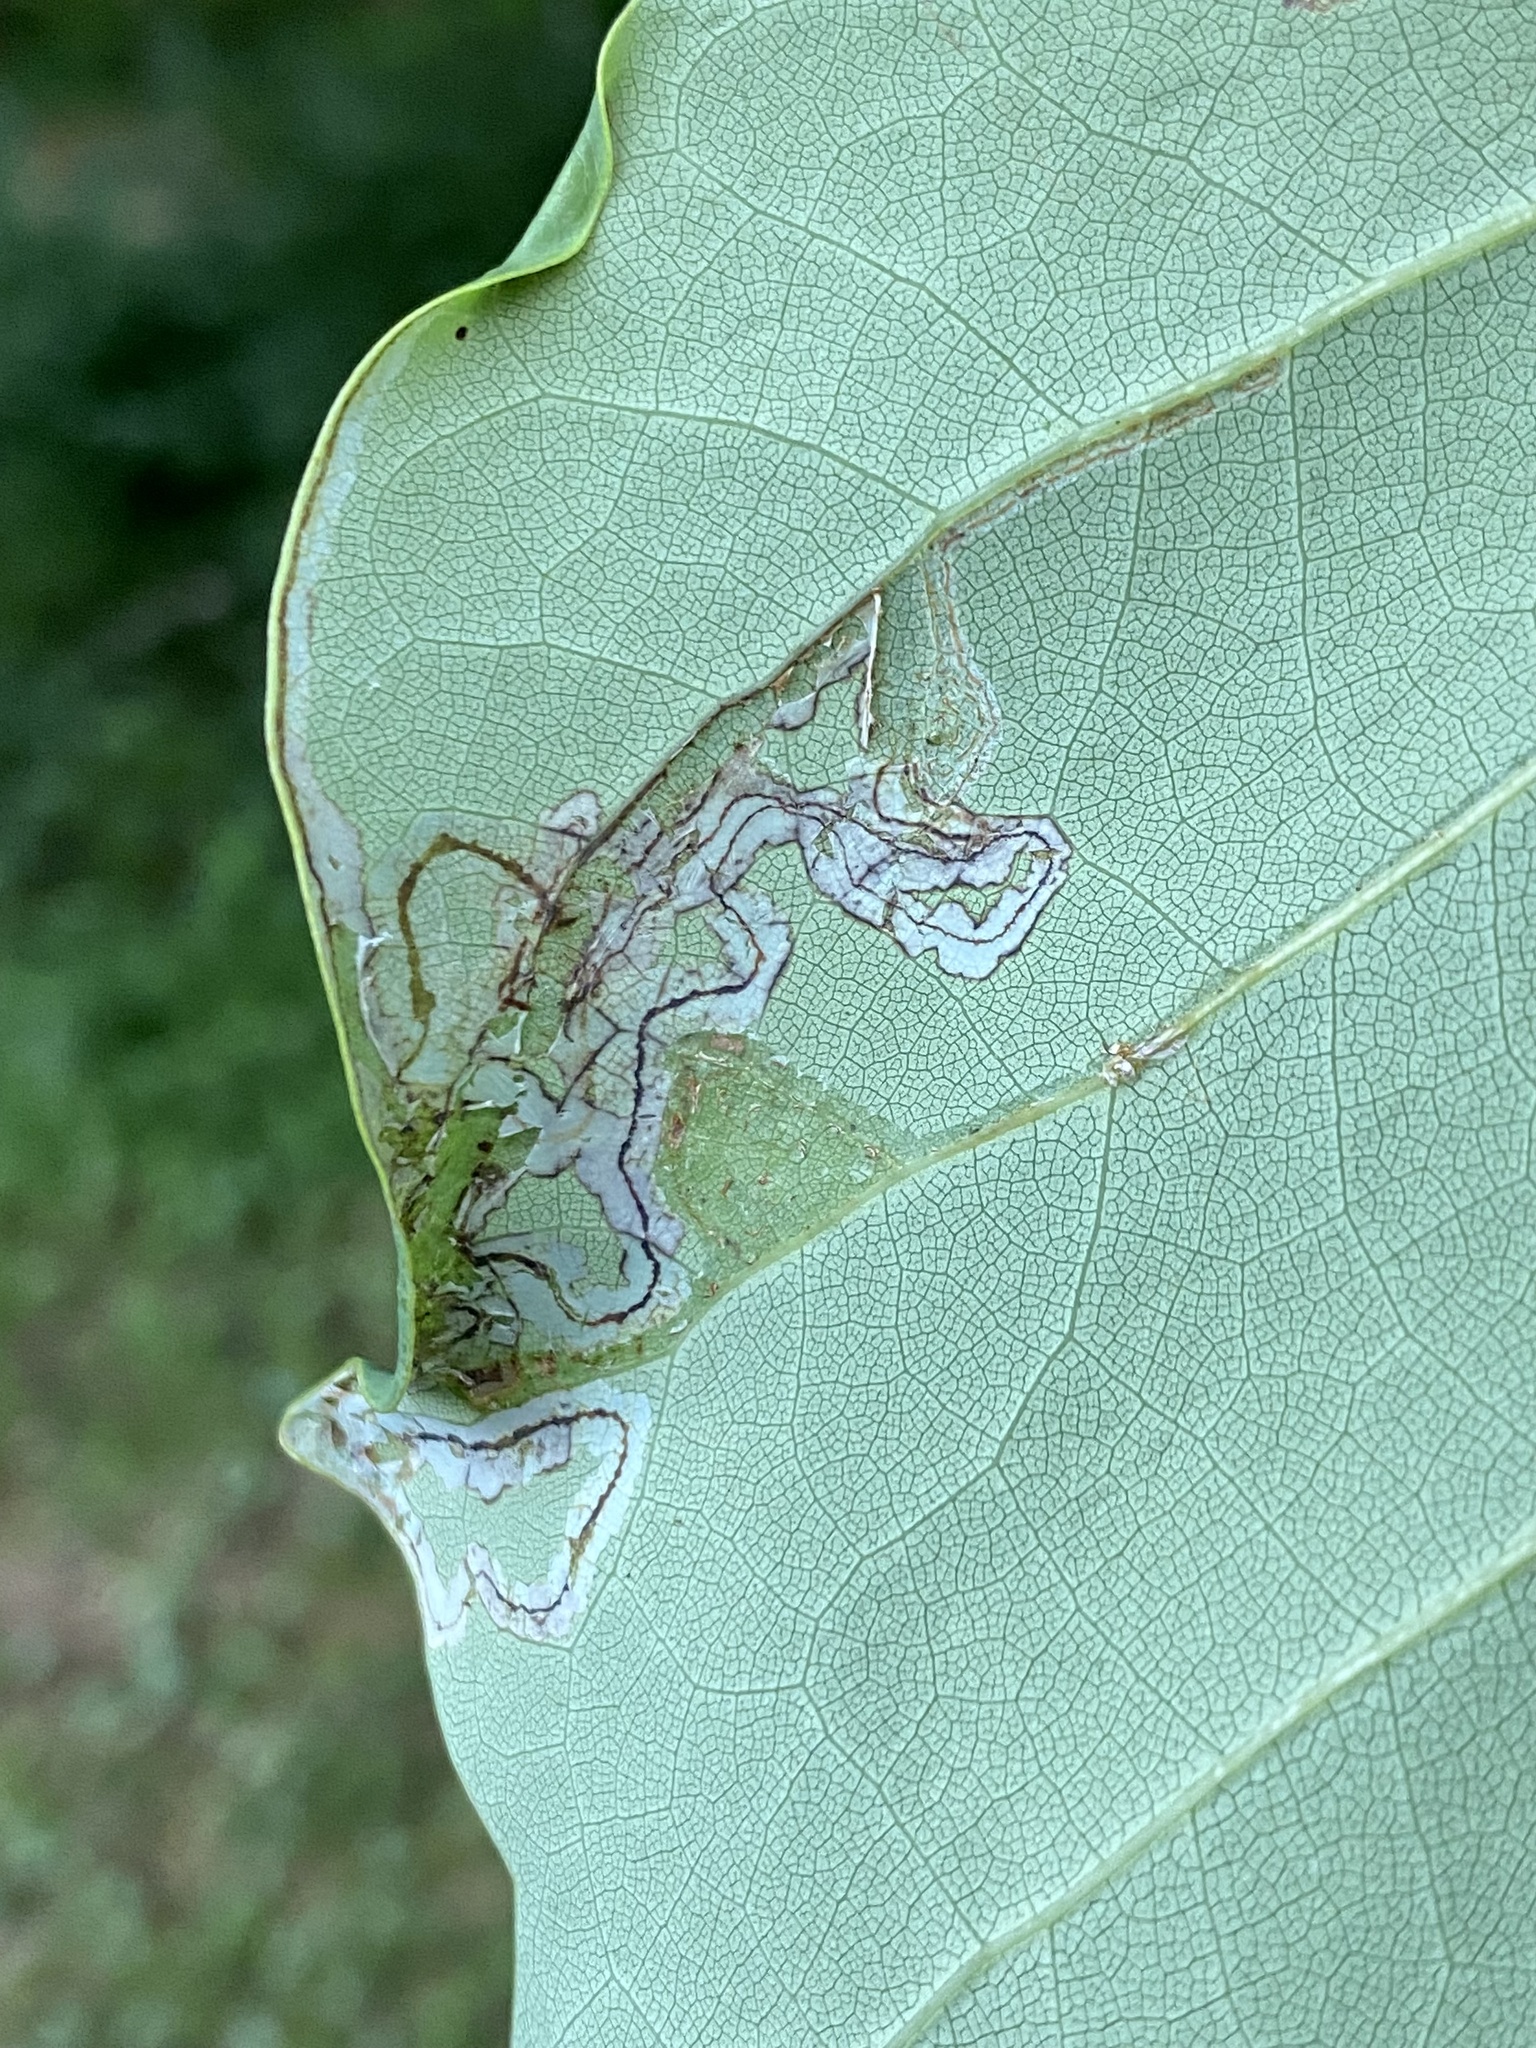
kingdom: Animalia
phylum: Arthropoda
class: Insecta
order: Lepidoptera
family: Gracillariidae
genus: Phyllocnistis
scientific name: Phyllocnistis liriodendronella
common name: Tulip tree leaf miner
